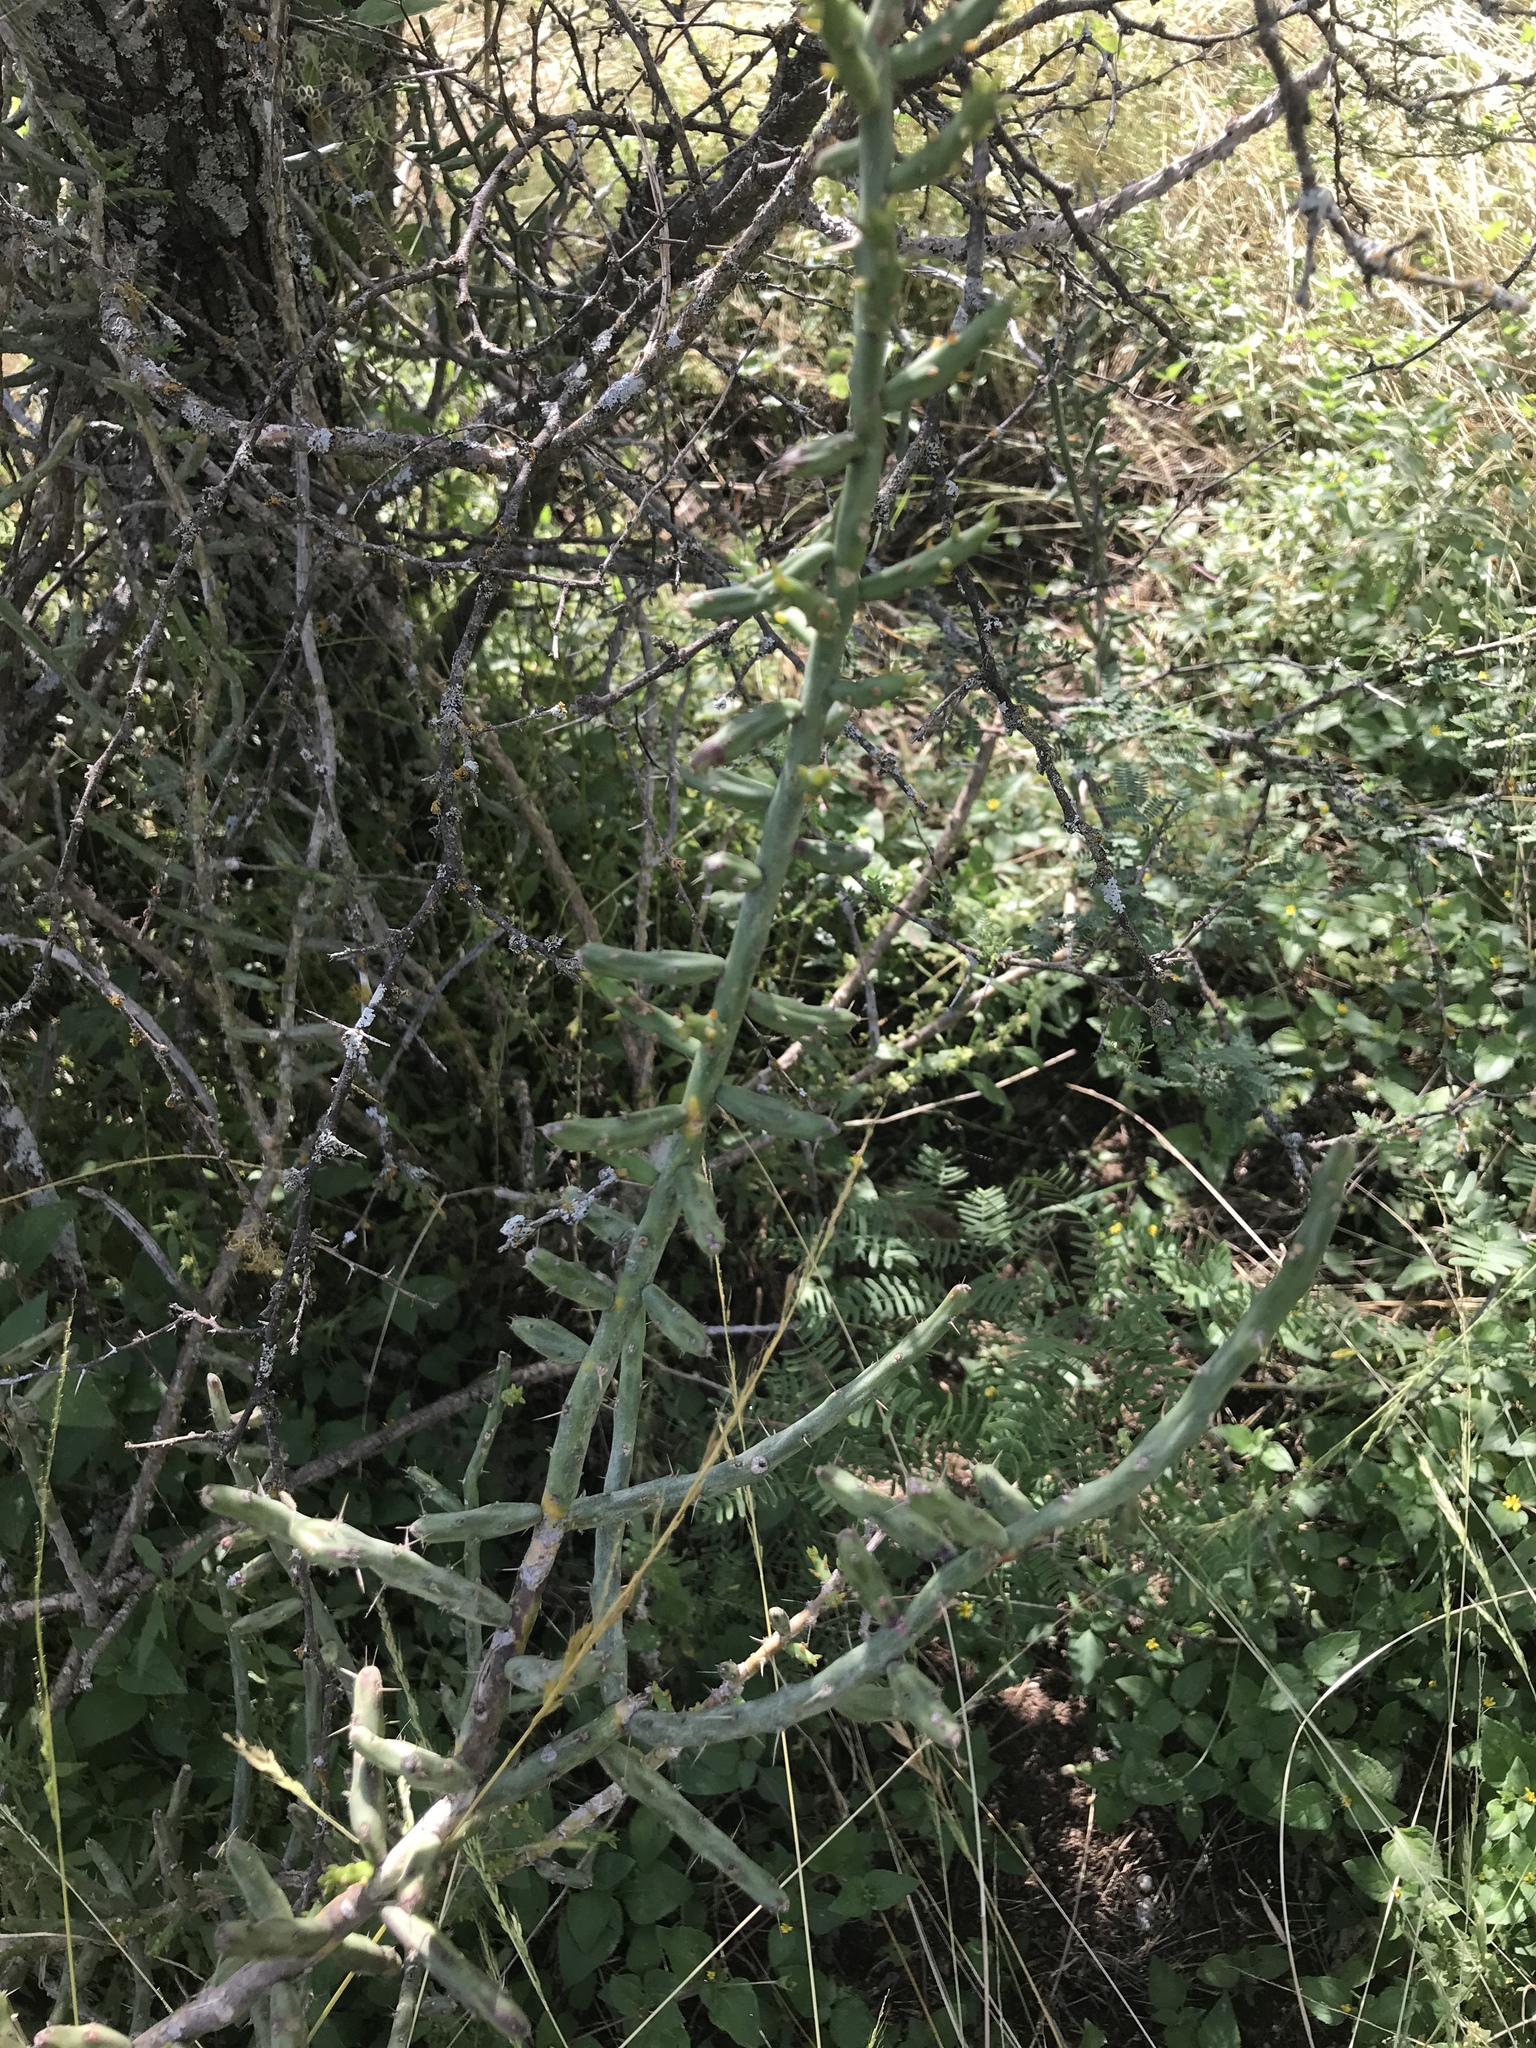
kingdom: Plantae
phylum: Tracheophyta
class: Magnoliopsida
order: Caryophyllales
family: Cactaceae
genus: Cylindropuntia
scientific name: Cylindropuntia leptocaulis
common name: Christmas cactus
